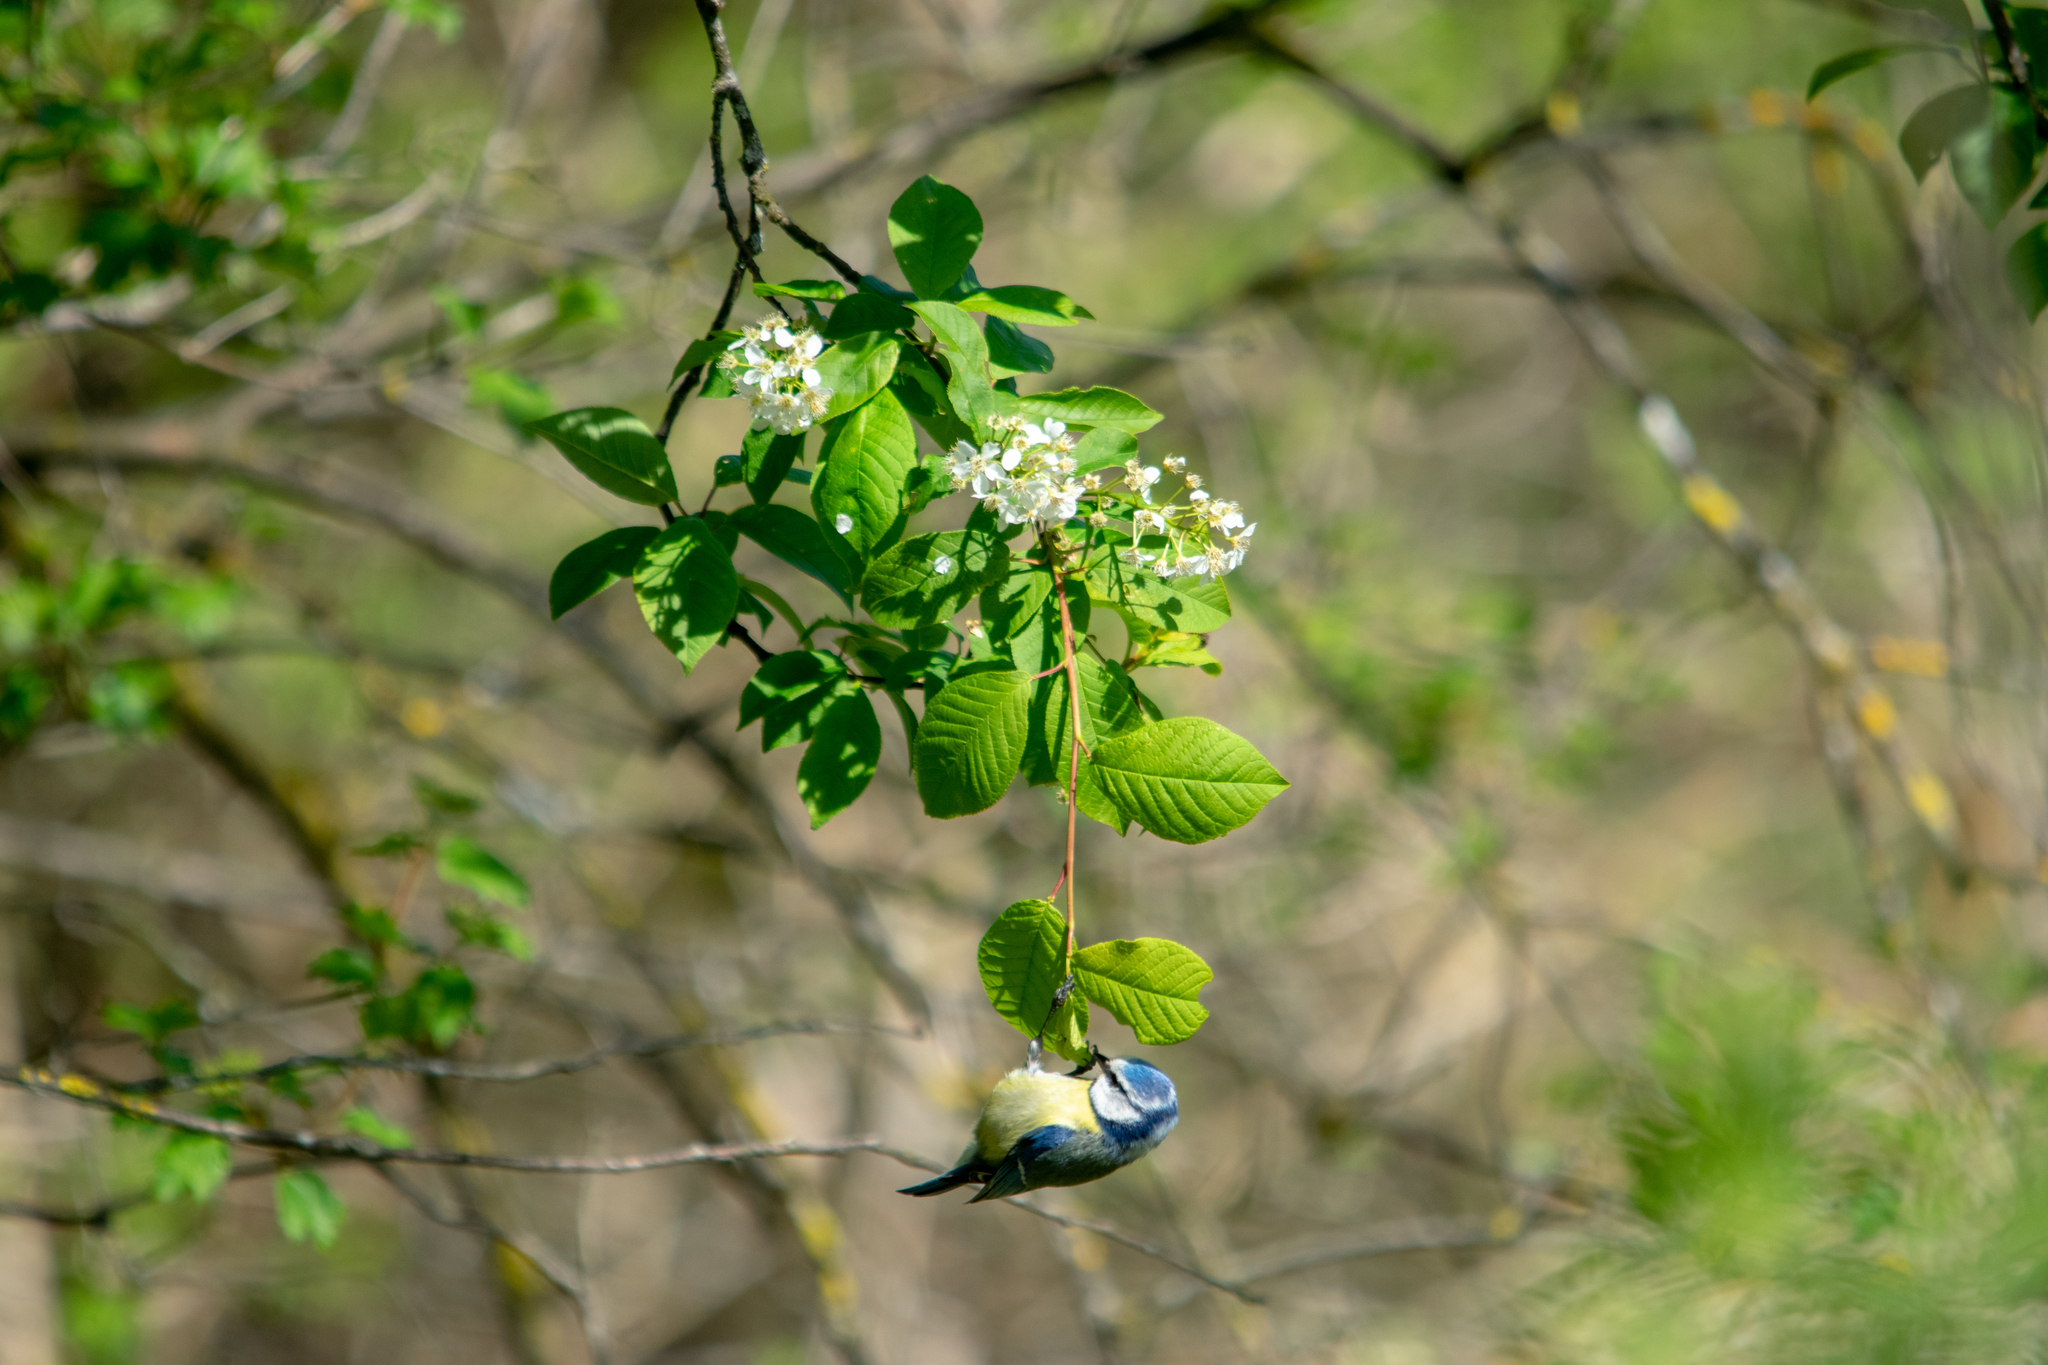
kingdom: Animalia
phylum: Chordata
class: Aves
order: Passeriformes
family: Paridae
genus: Cyanistes
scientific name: Cyanistes caeruleus
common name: Eurasian blue tit
